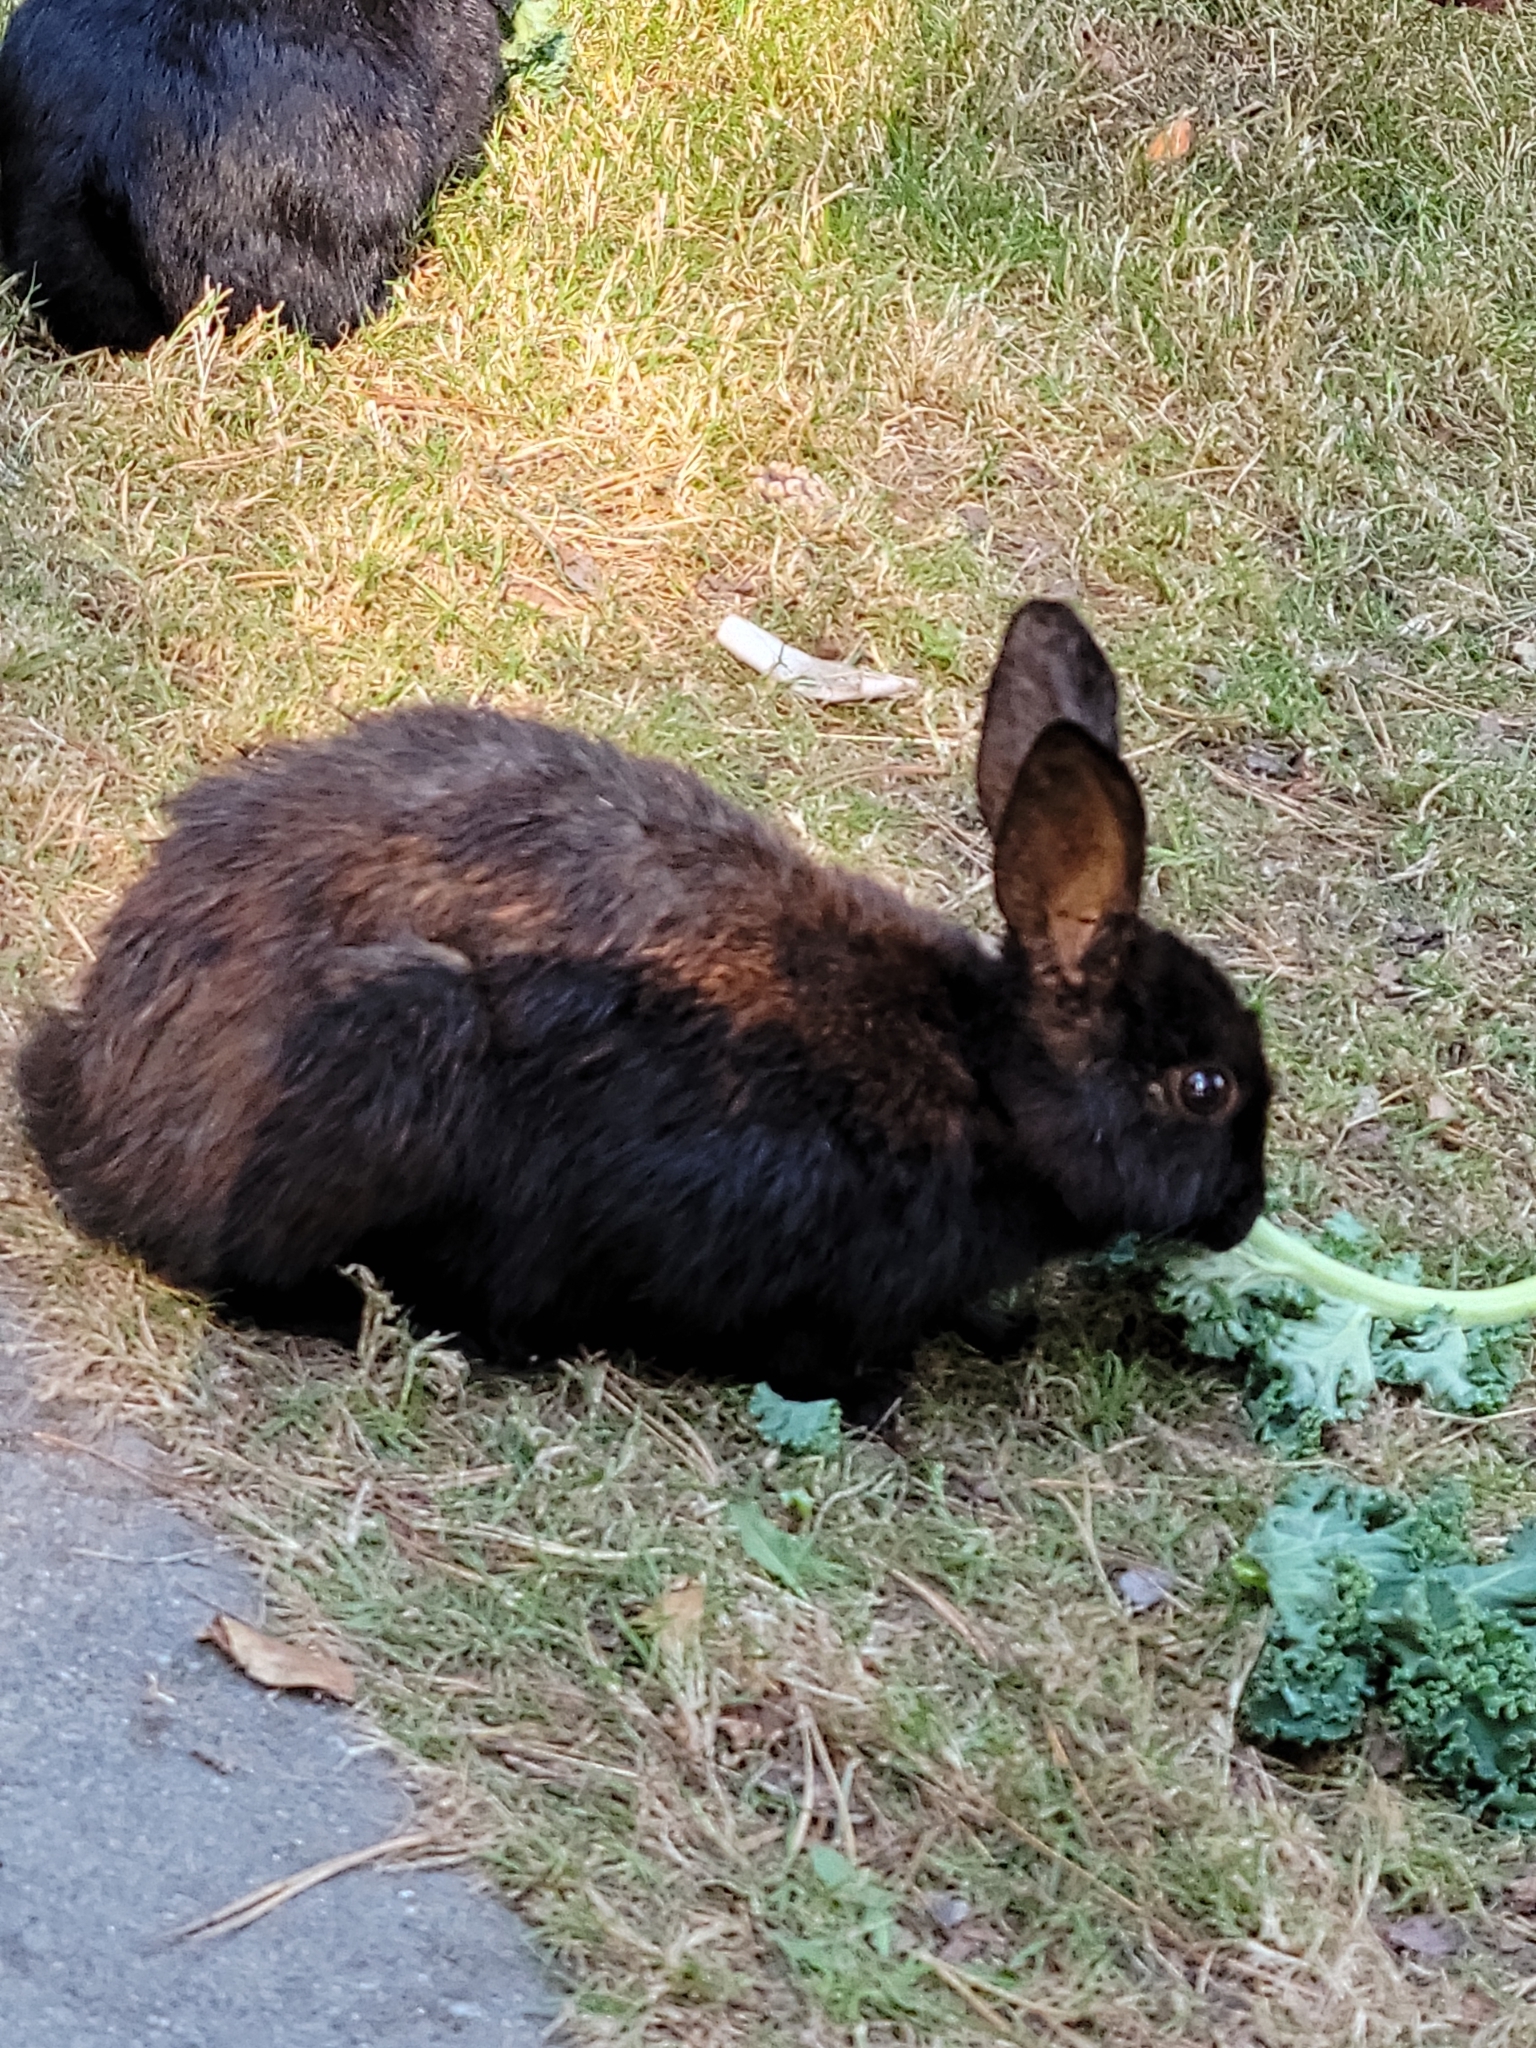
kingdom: Animalia
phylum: Chordata
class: Mammalia
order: Lagomorpha
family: Leporidae
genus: Oryctolagus
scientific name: Oryctolagus cuniculus
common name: European rabbit
